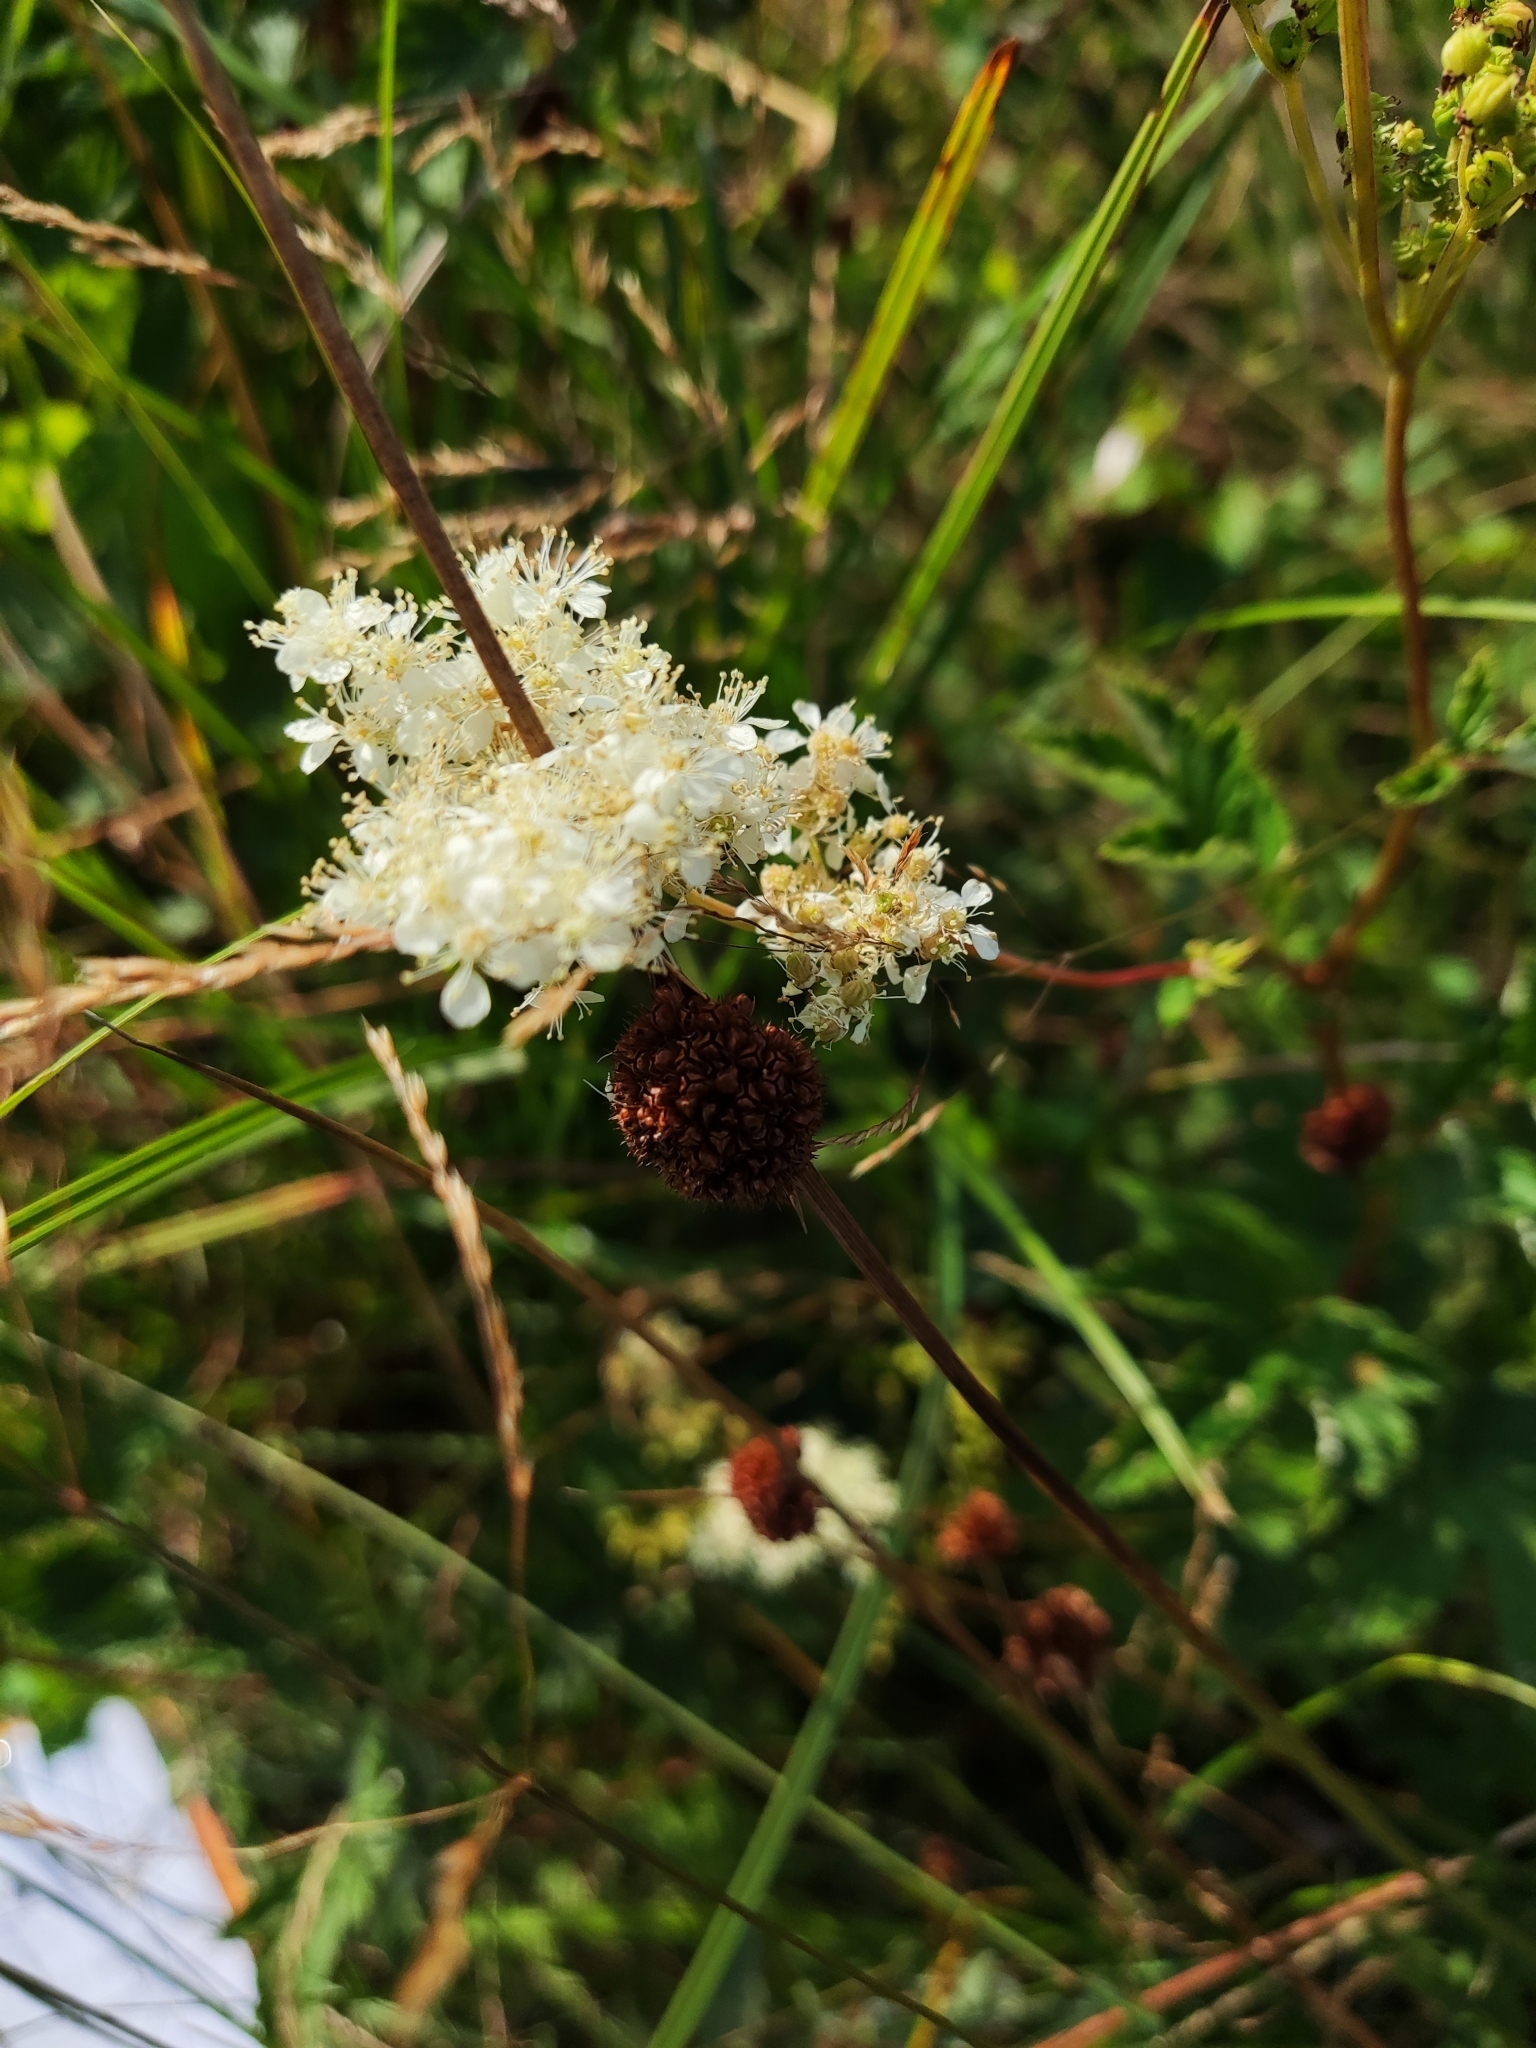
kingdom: Plantae
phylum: Tracheophyta
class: Magnoliopsida
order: Rosales
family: Rosaceae
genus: Filipendula
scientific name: Filipendula ulmaria
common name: Meadowsweet
